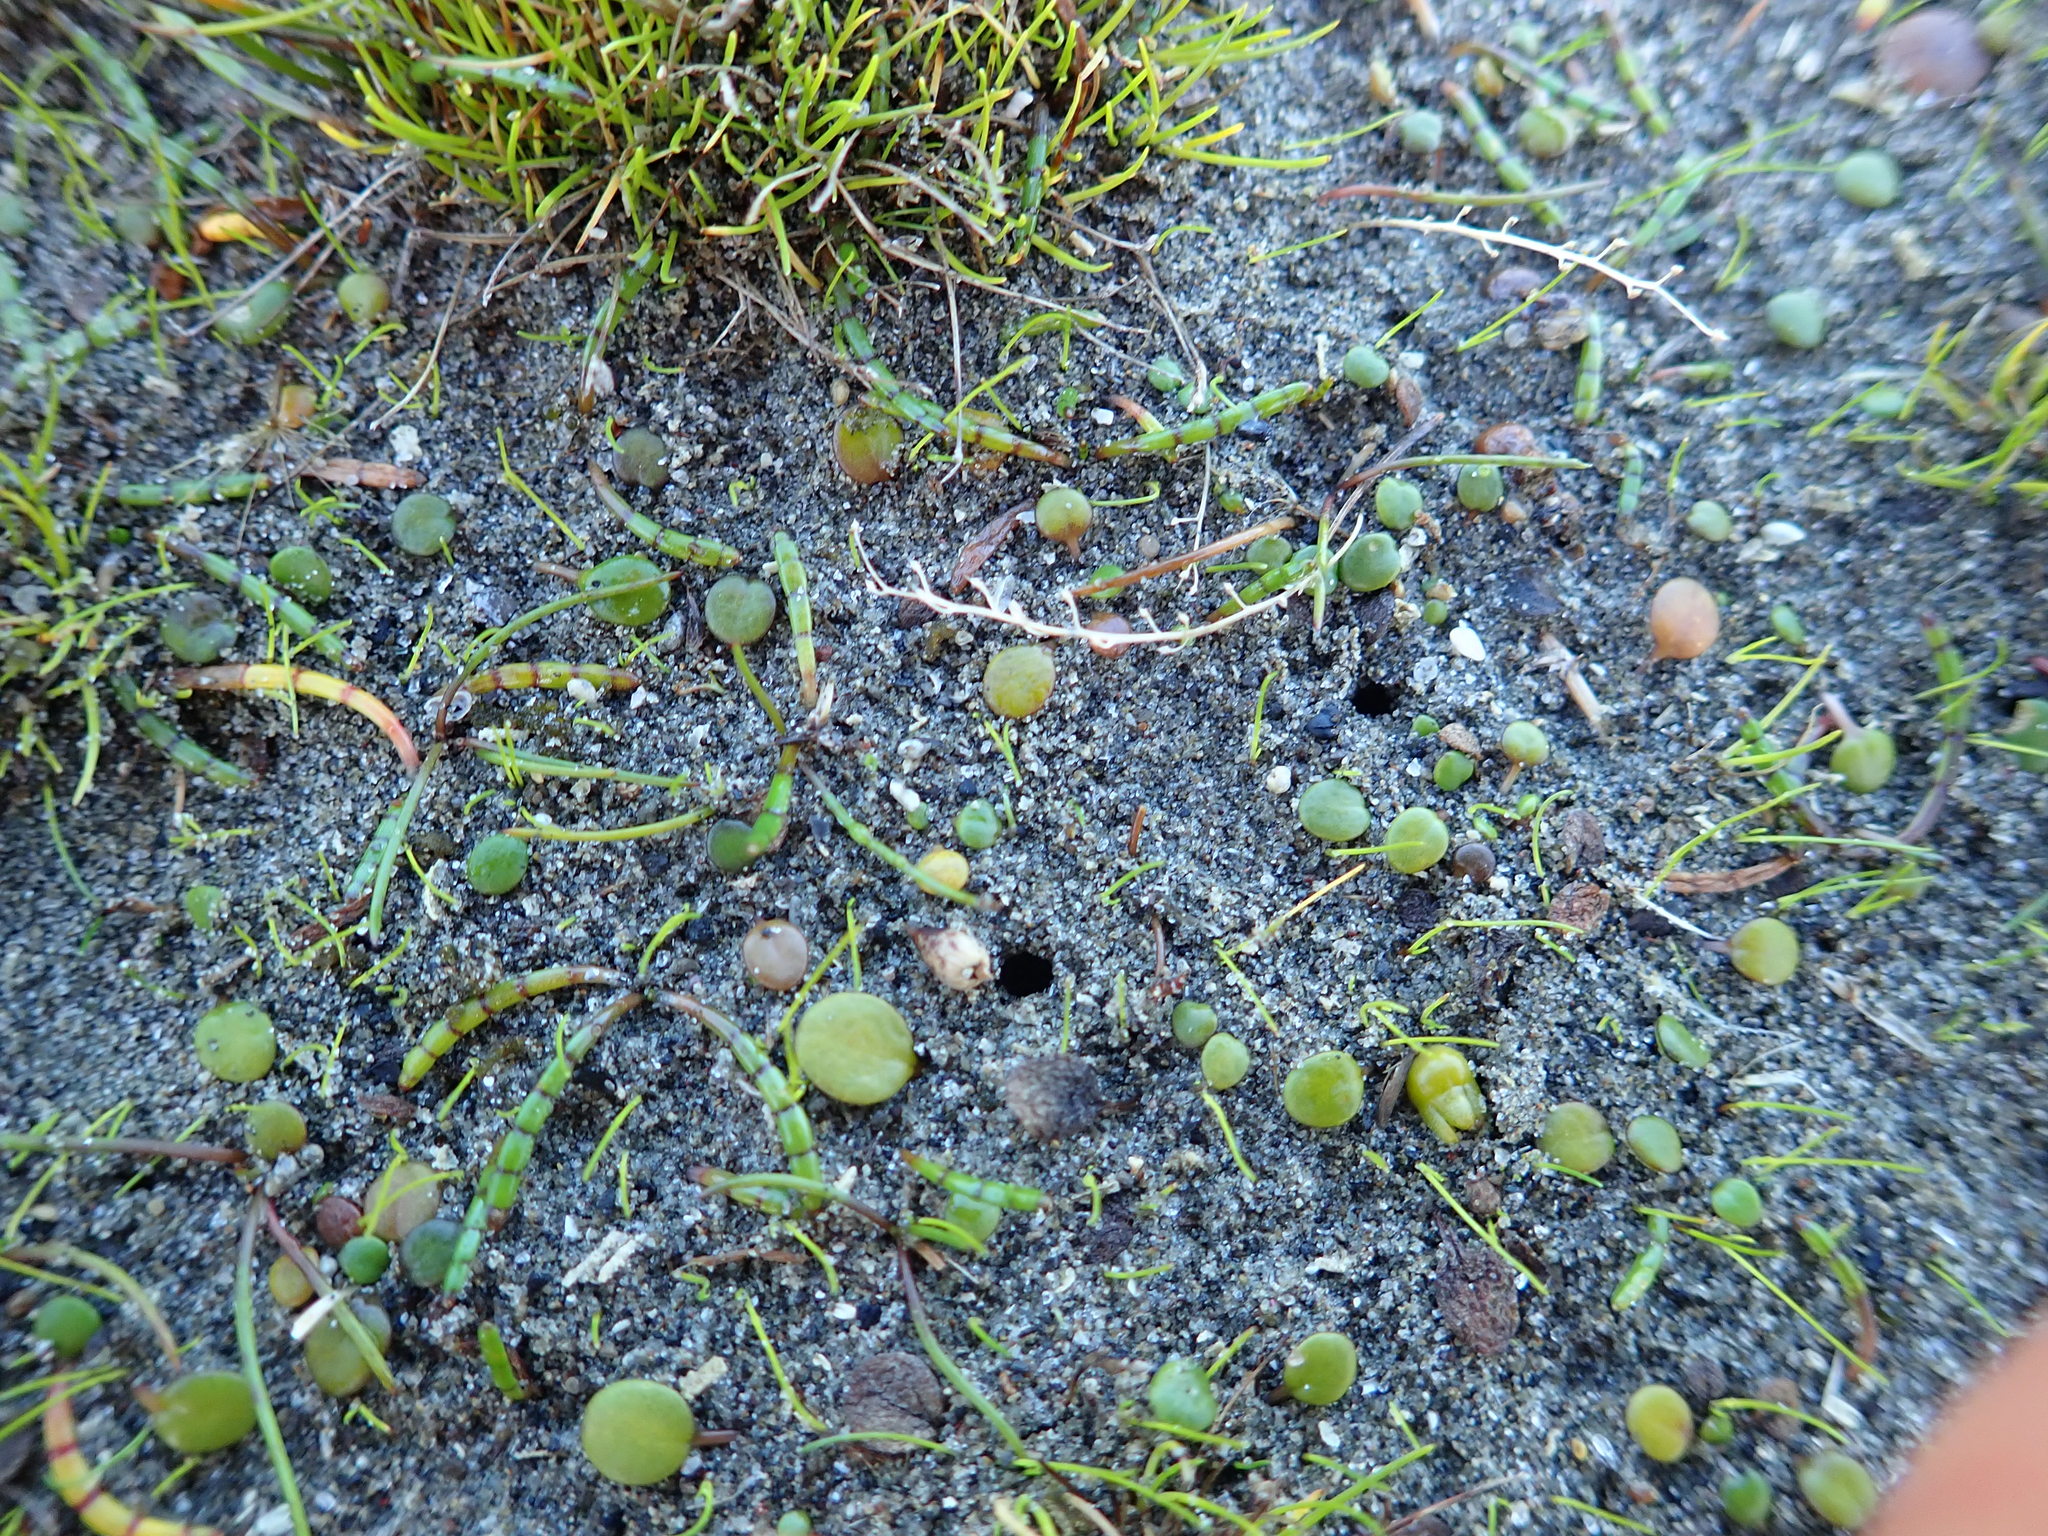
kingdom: Plantae
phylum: Tracheophyta
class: Magnoliopsida
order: Apiales
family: Apiaceae
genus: Lilaeopsis
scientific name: Lilaeopsis novae-zelandiae
